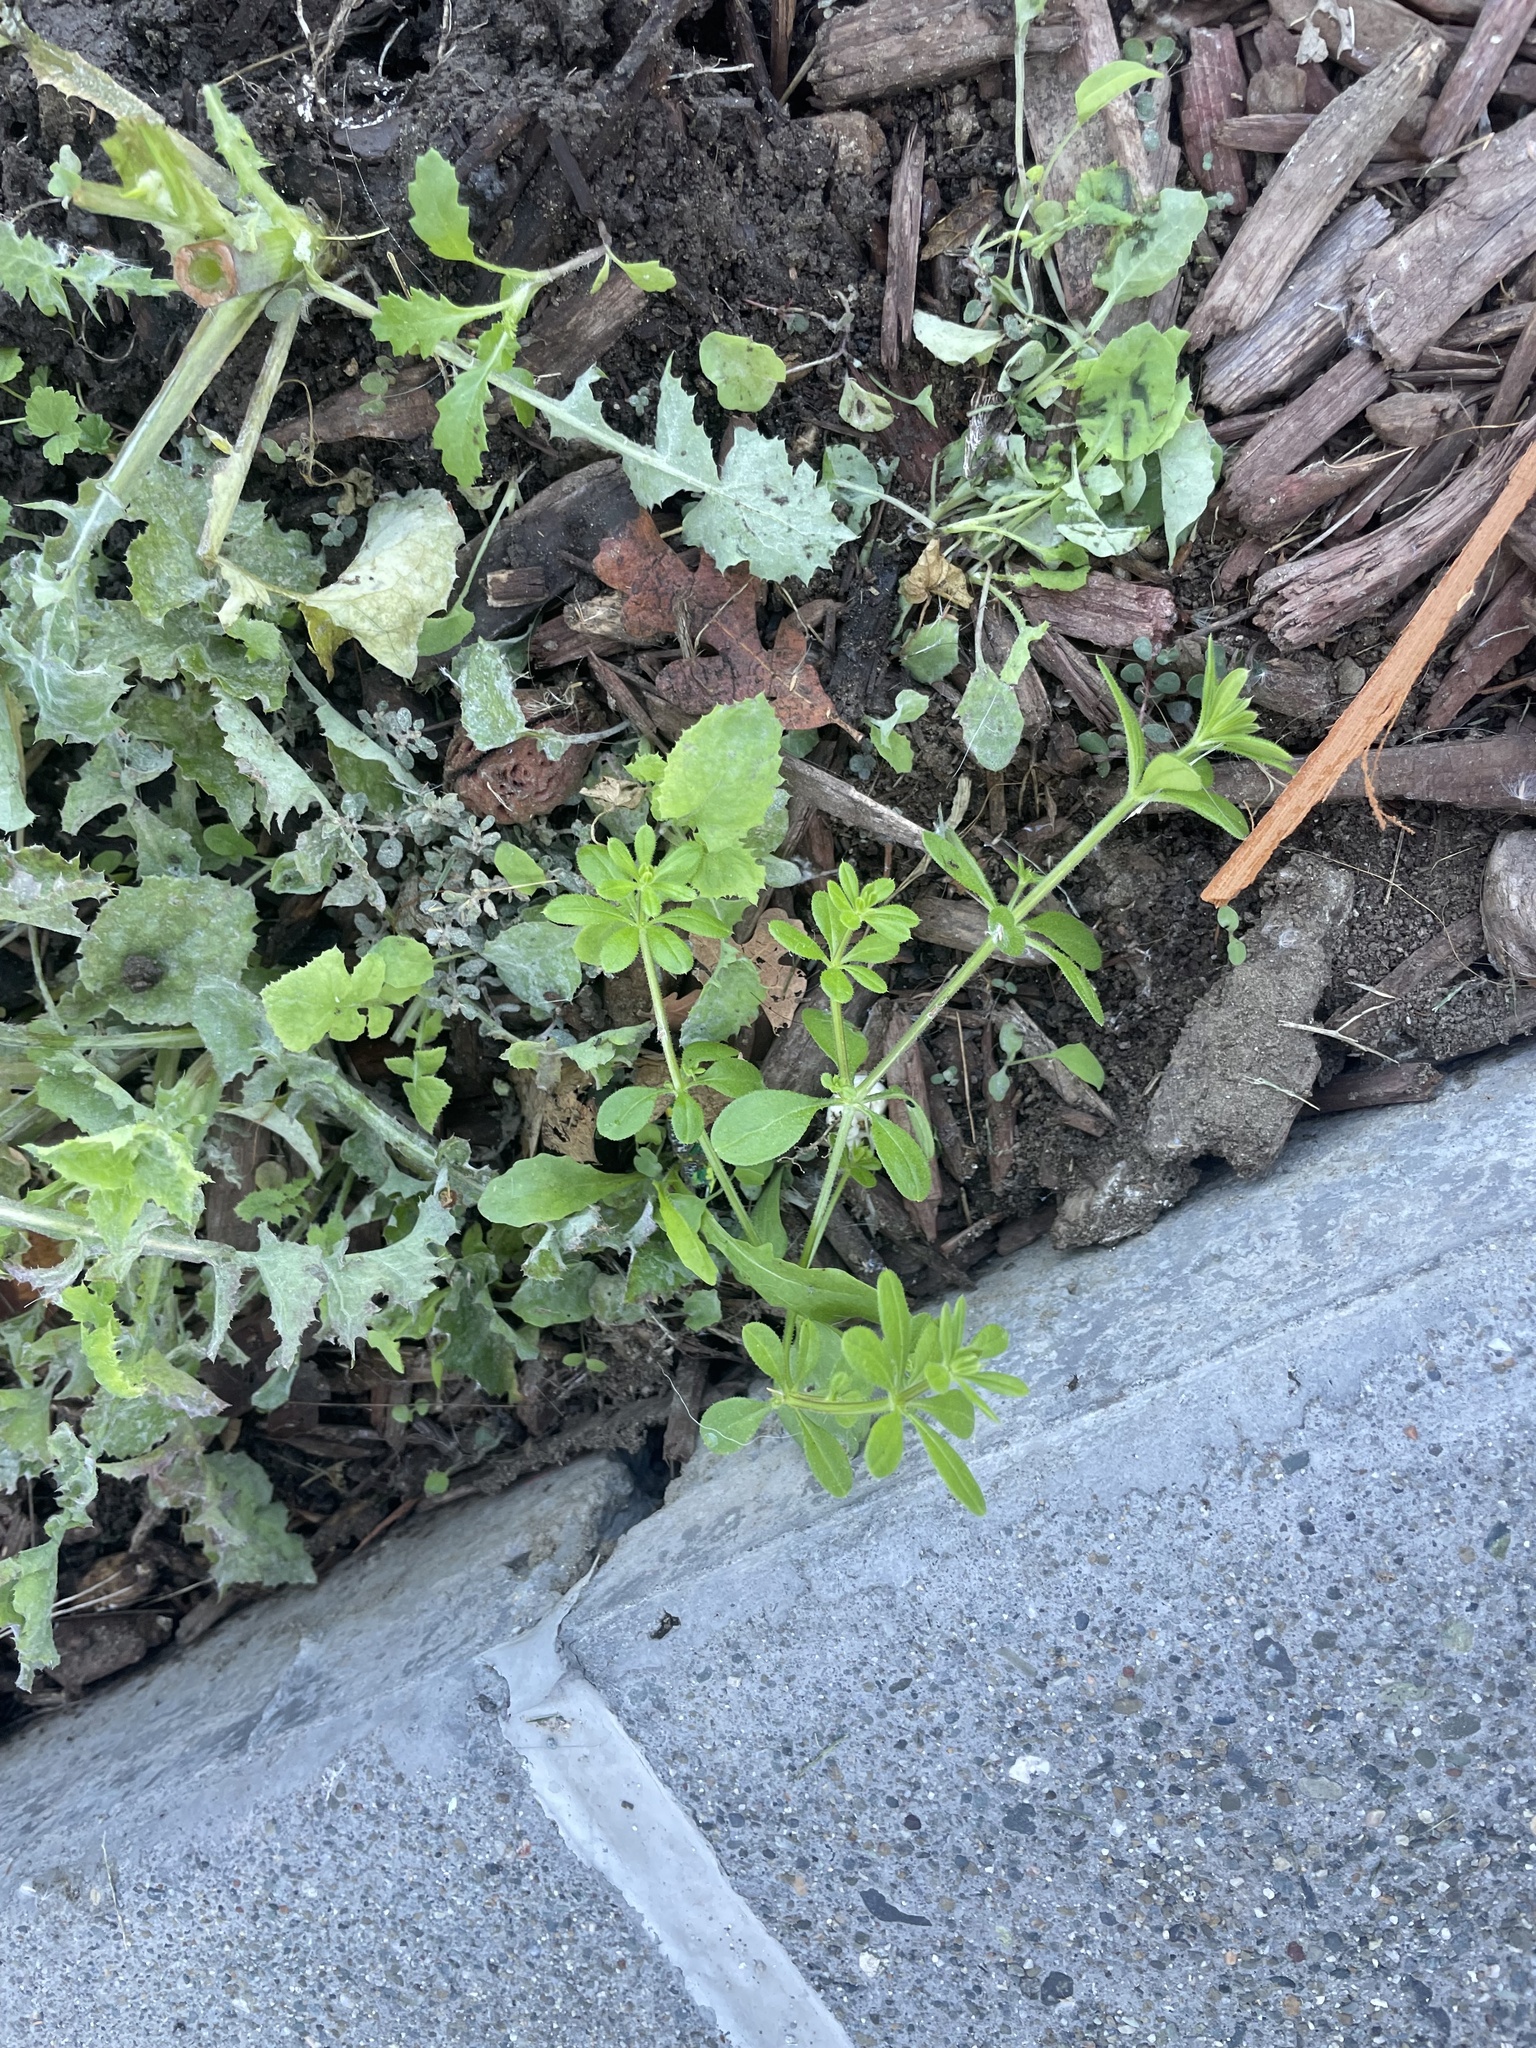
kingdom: Plantae
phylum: Tracheophyta
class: Magnoliopsida
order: Gentianales
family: Rubiaceae
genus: Galium
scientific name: Galium aparine
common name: Cleavers
